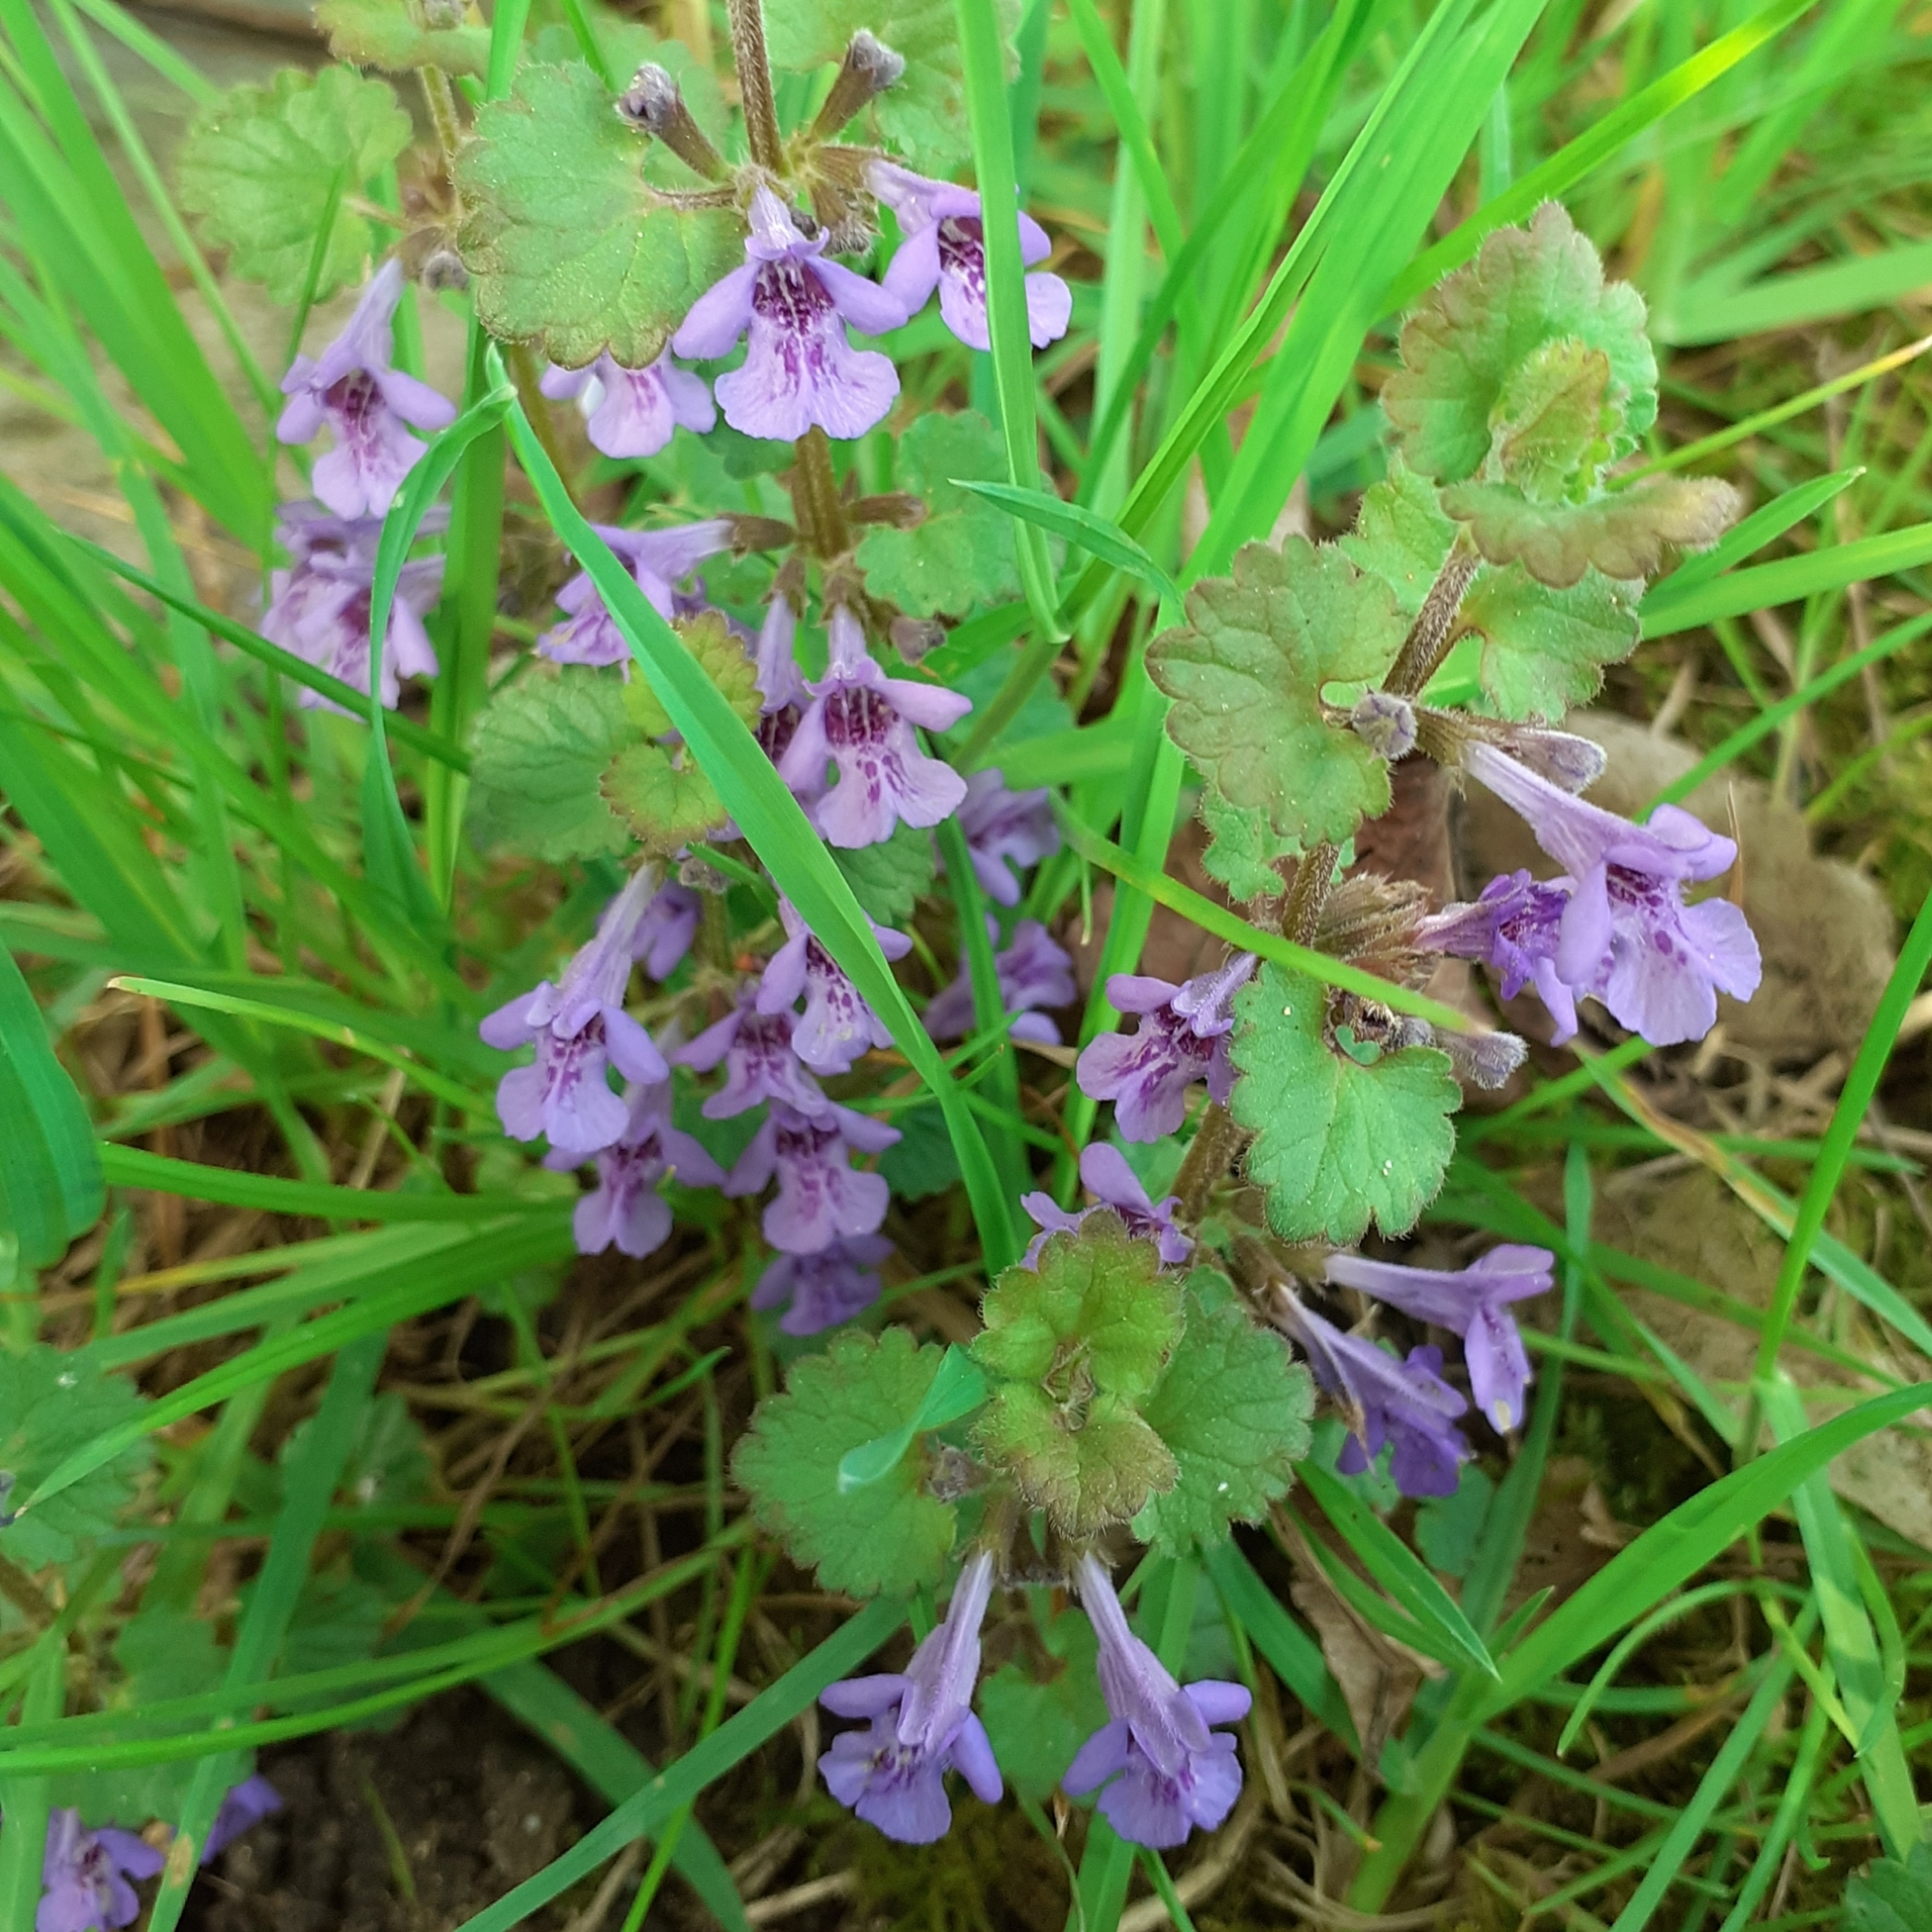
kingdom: Plantae
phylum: Tracheophyta
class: Magnoliopsida
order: Lamiales
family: Lamiaceae
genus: Glechoma
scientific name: Glechoma hederacea
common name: Ground ivy
